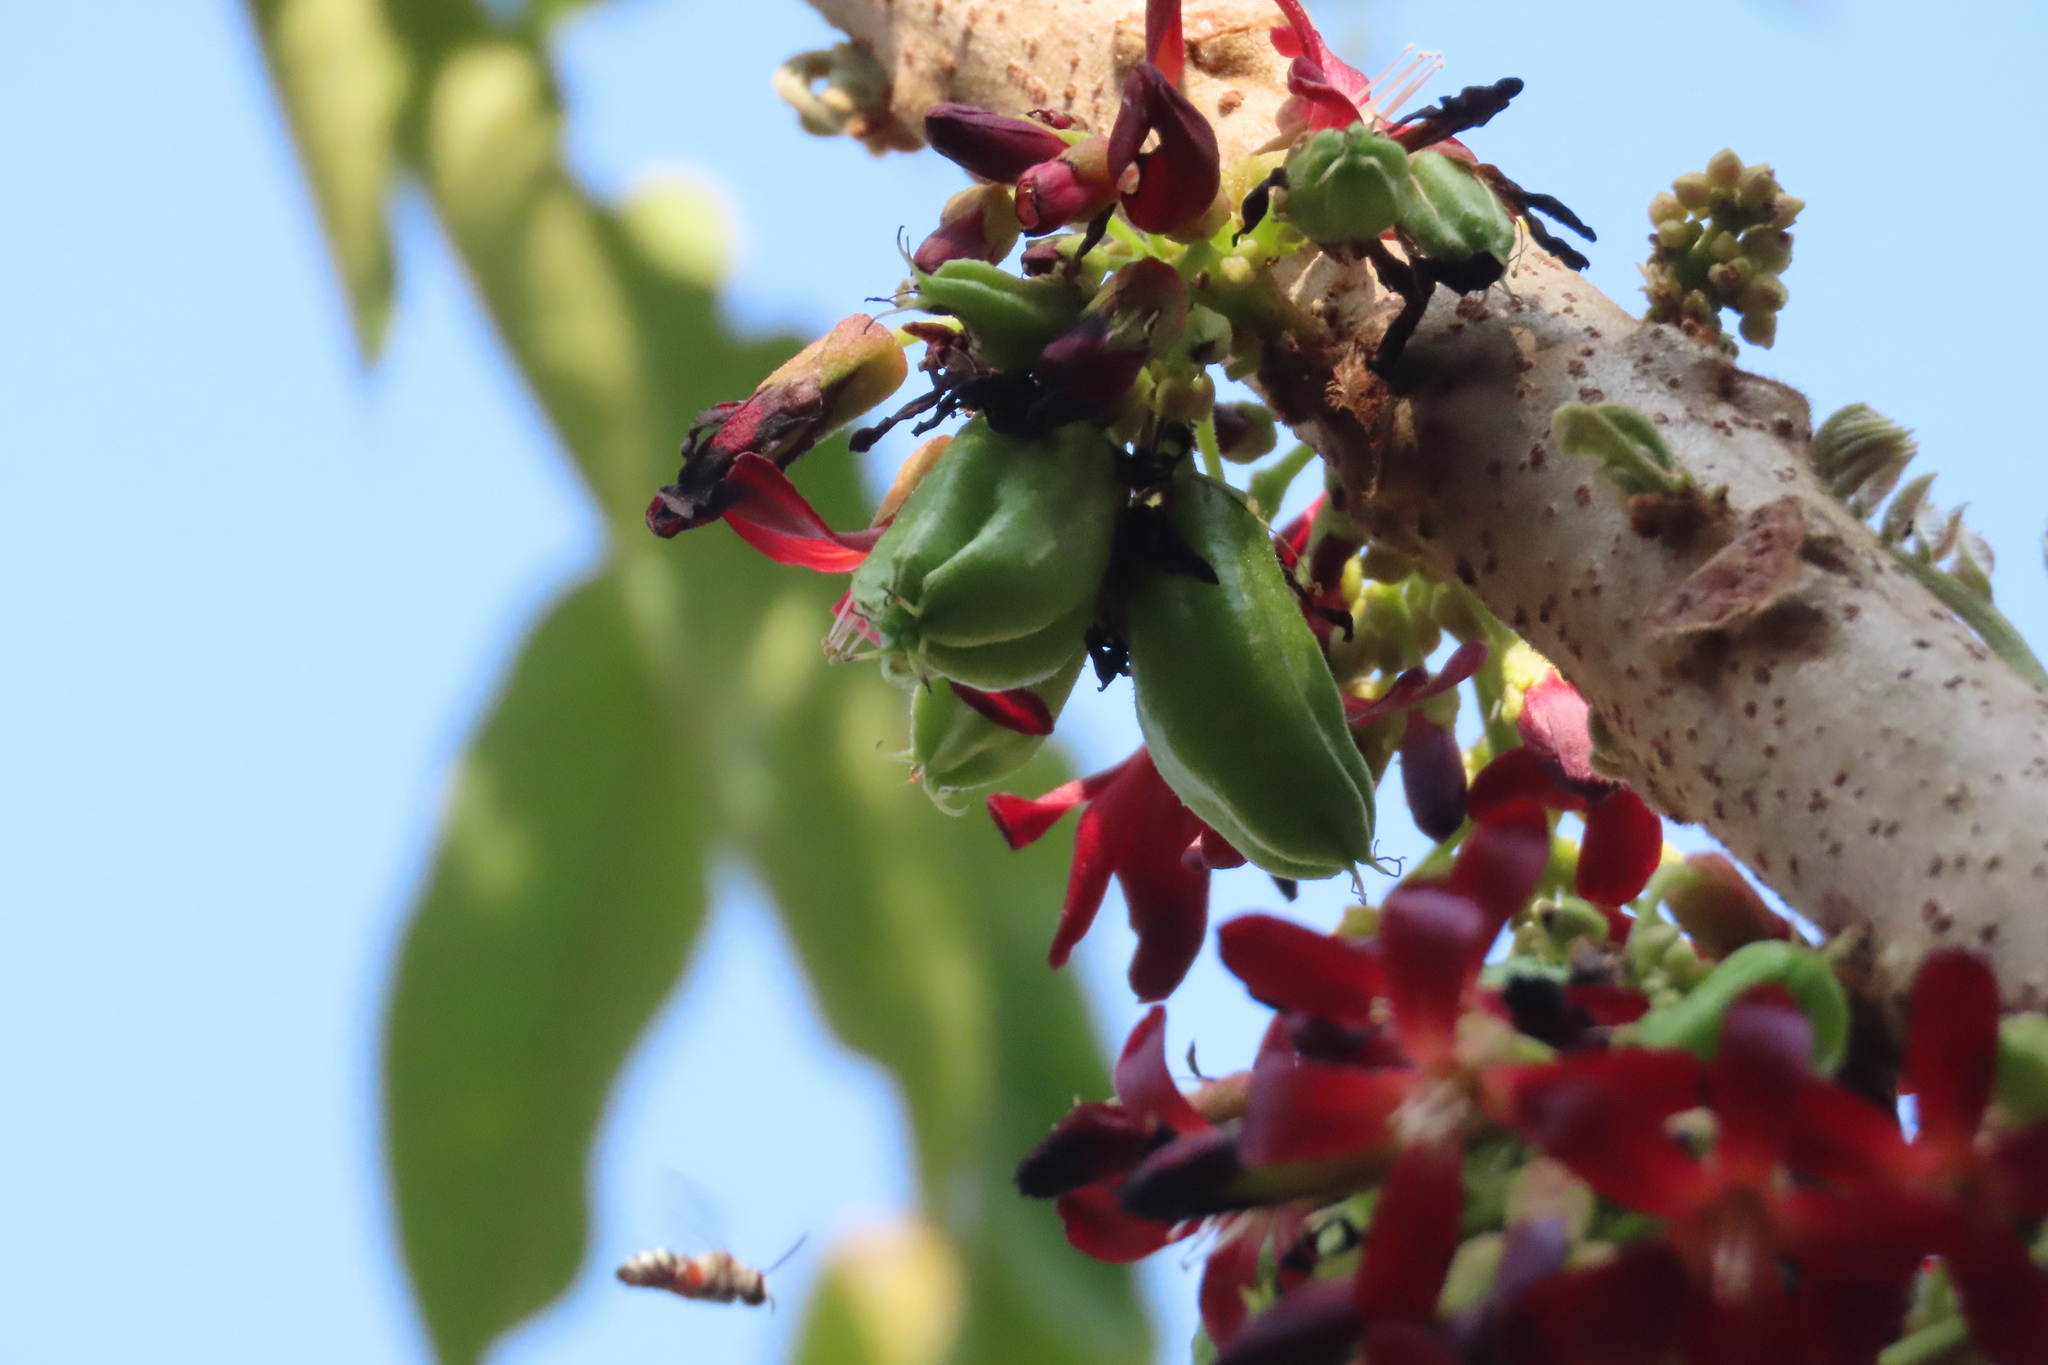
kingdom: Animalia
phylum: Arthropoda
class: Insecta
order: Hymenoptera
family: Halictidae
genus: Nomia
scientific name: Nomia westwoodi
